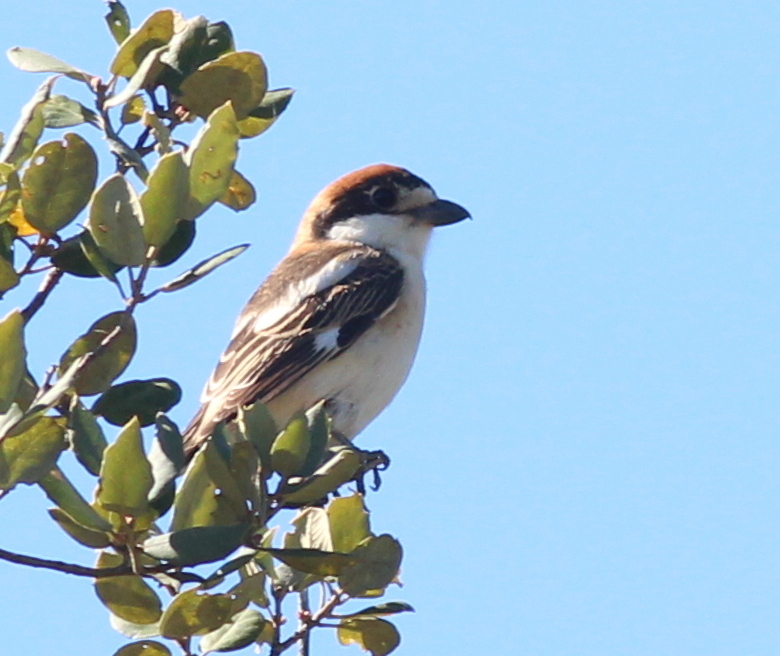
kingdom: Animalia
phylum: Chordata
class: Aves
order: Passeriformes
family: Laniidae
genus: Lanius
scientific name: Lanius senator
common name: Woodchat shrike
